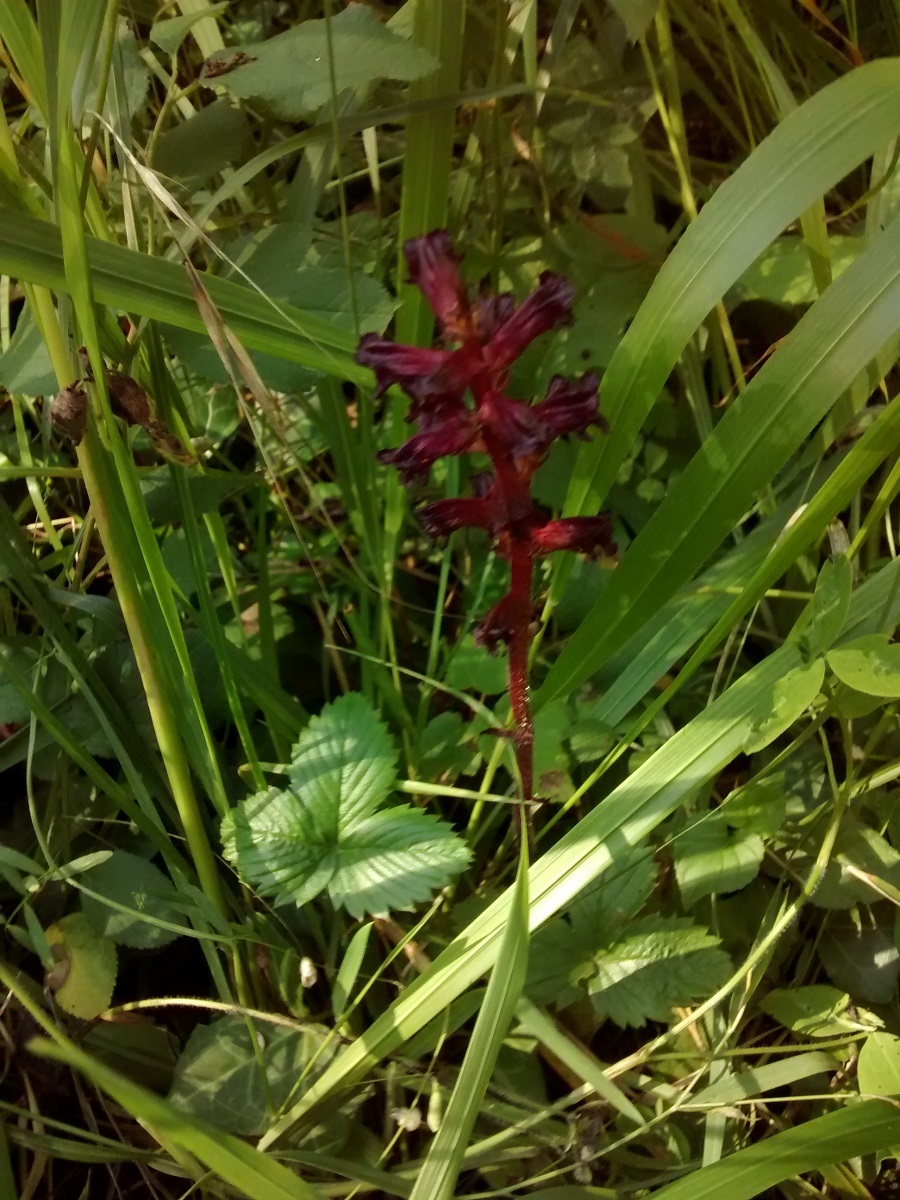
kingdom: Plantae
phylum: Tracheophyta
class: Magnoliopsida
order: Lamiales
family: Orobanchaceae
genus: Orobanche
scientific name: Orobanche foetida
